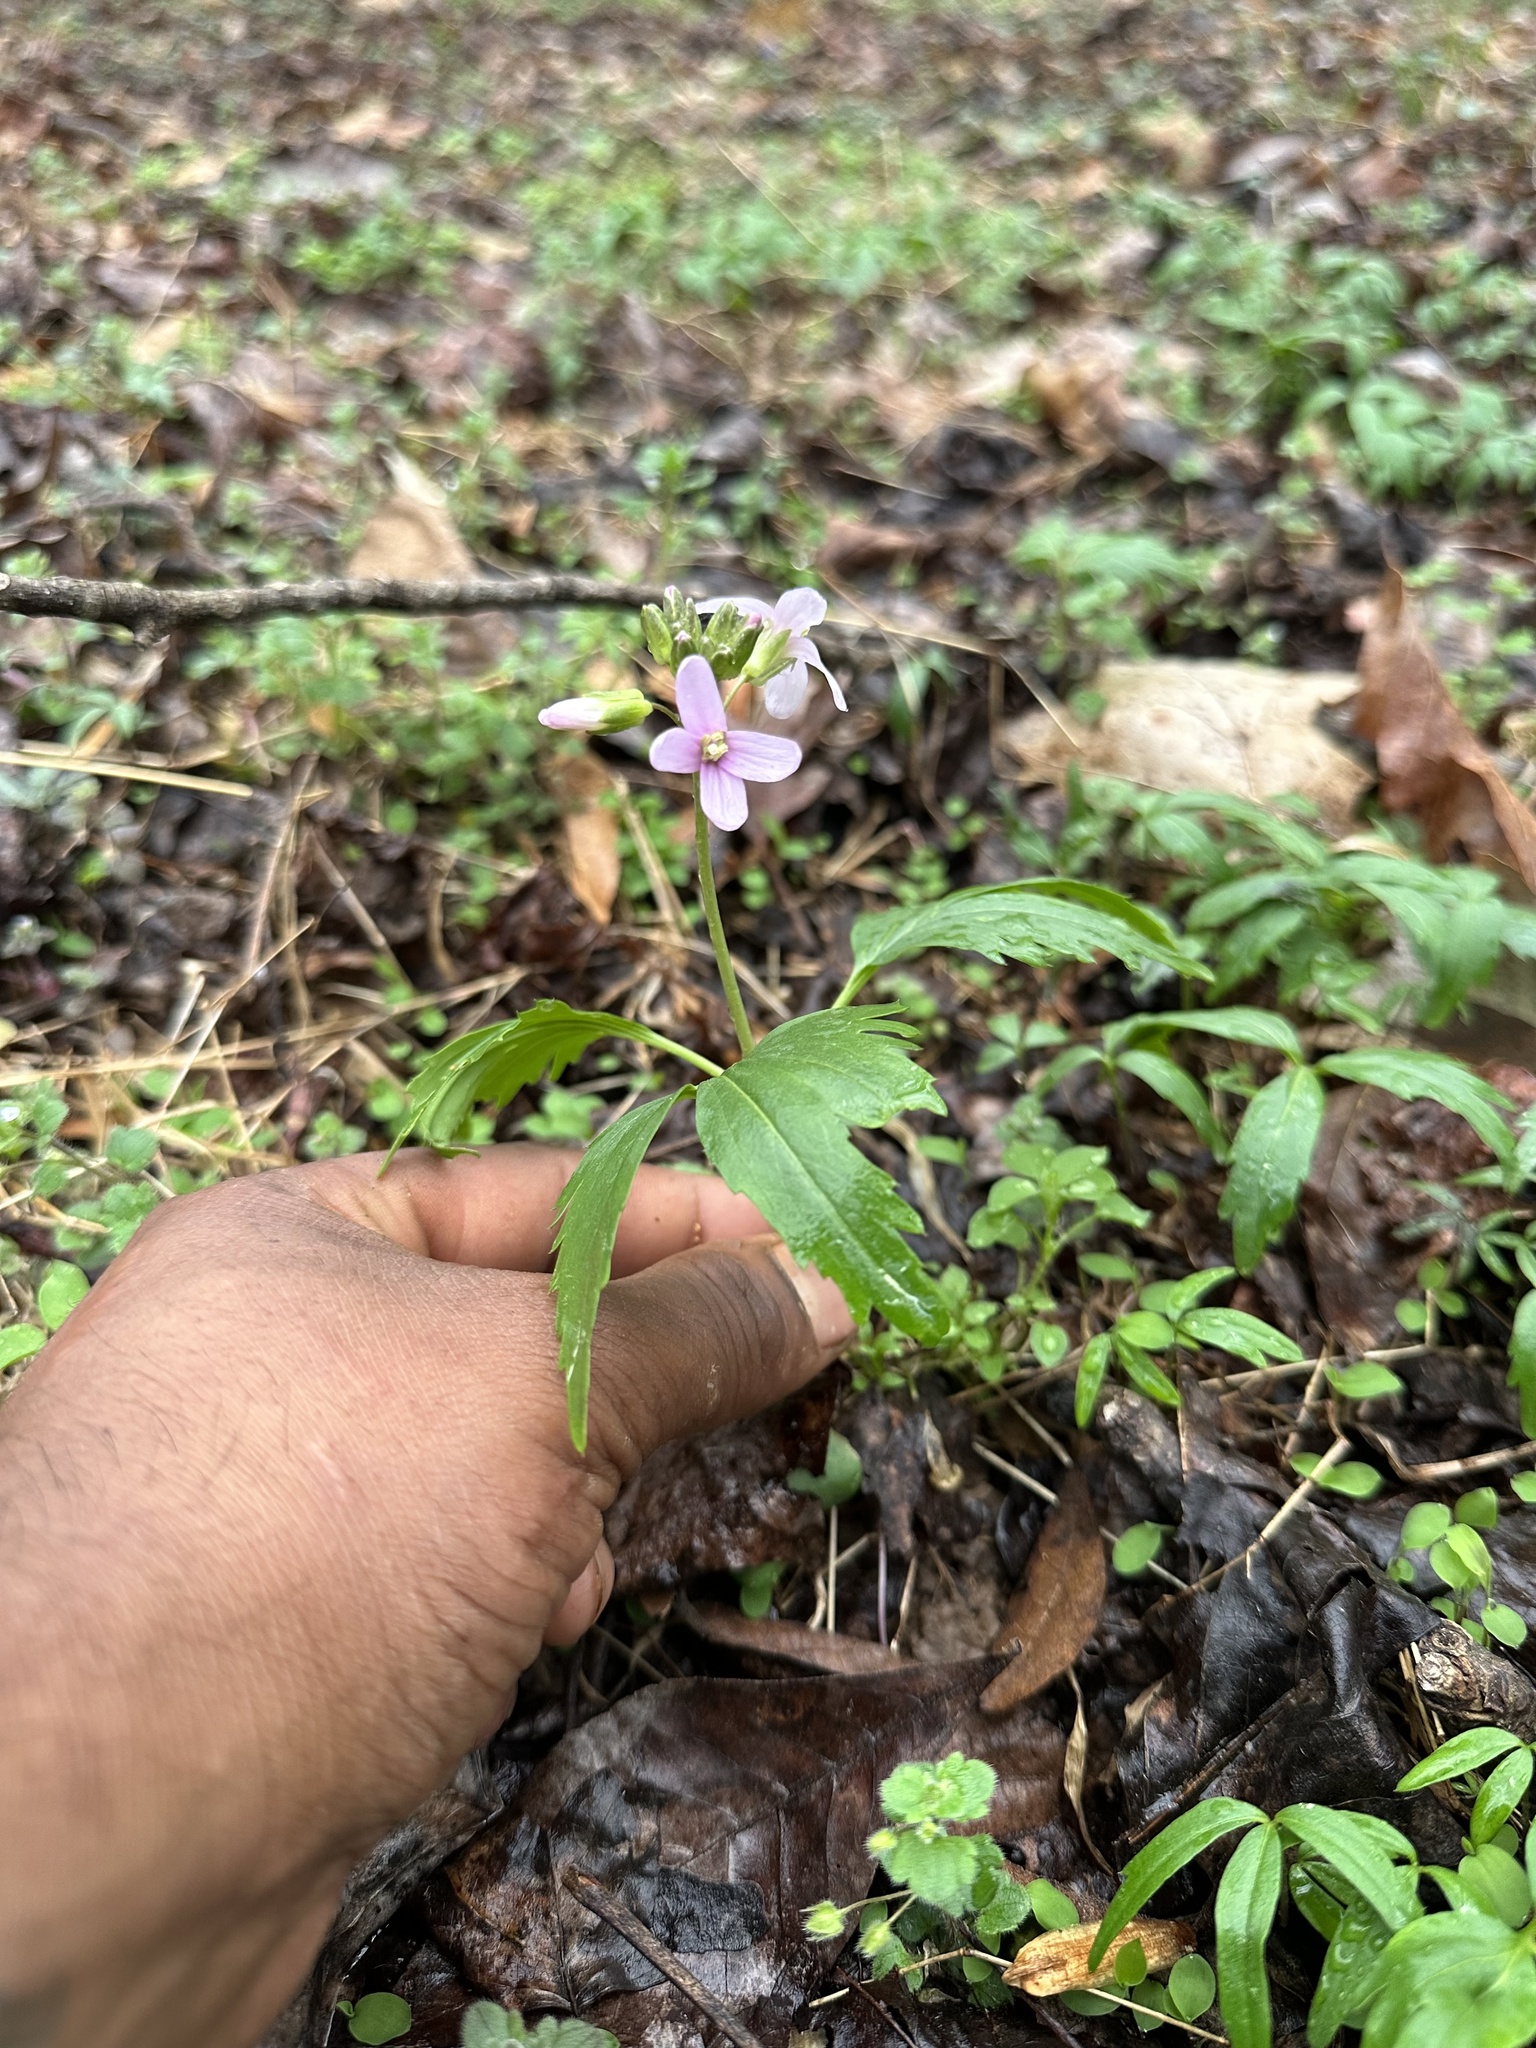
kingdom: Plantae
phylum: Tracheophyta
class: Magnoliopsida
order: Brassicales
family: Brassicaceae
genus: Cardamine
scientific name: Cardamine concatenata
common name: Cut-leaf toothcup
